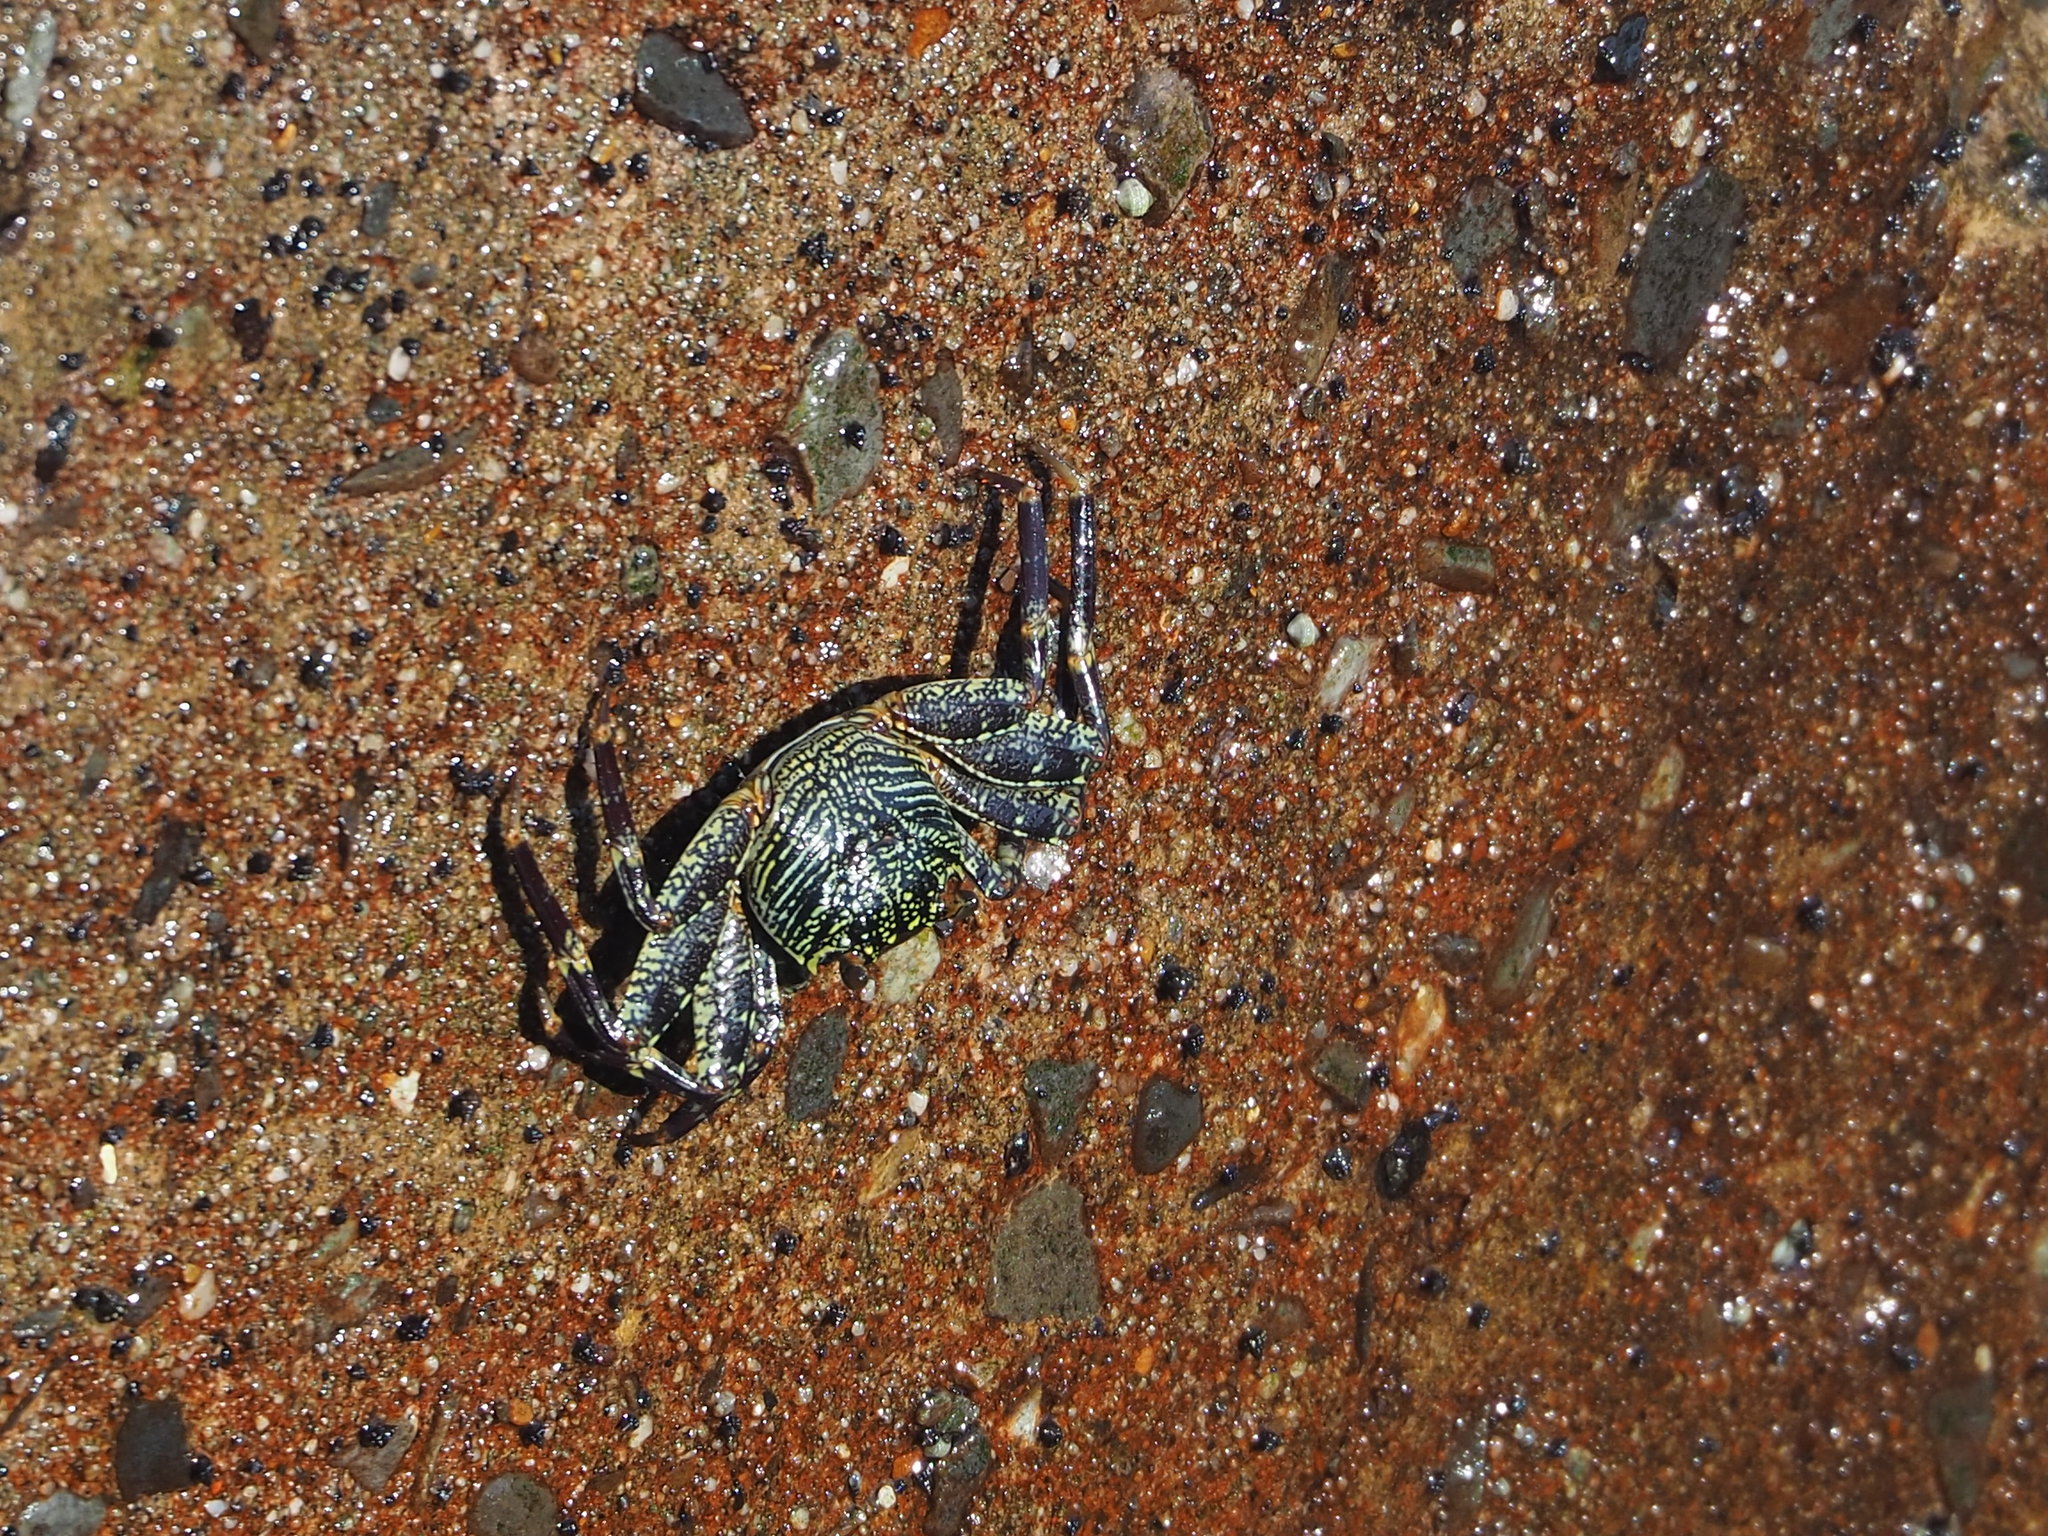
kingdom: Animalia
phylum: Arthropoda
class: Malacostraca
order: Decapoda
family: Grapsidae
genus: Grapsus
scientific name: Grapsus albolineatus
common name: Mottled lightfoot crab
